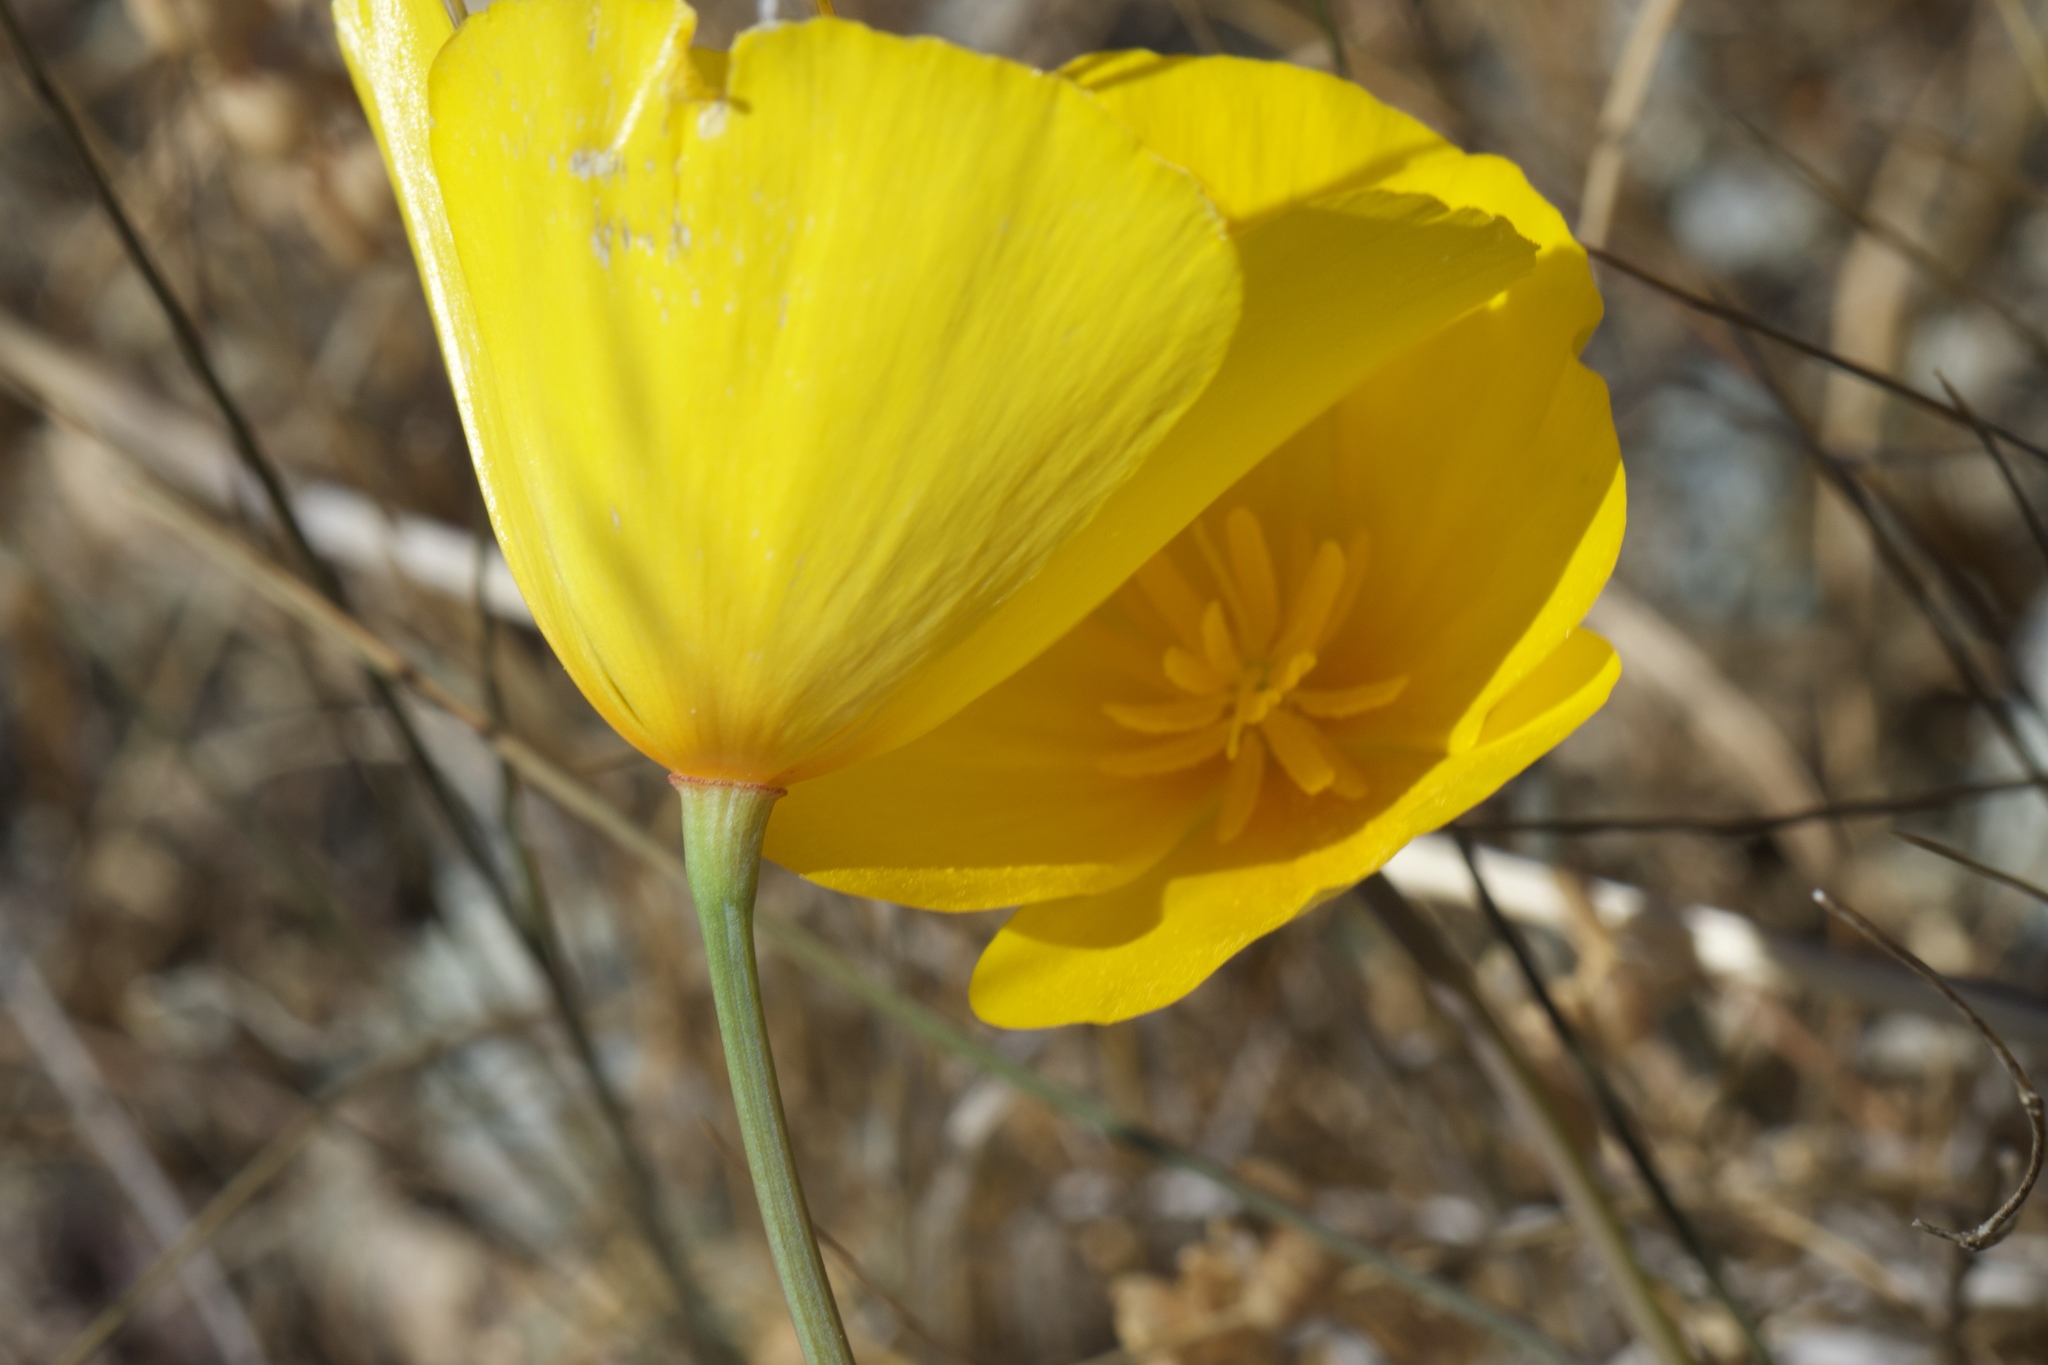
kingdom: Plantae
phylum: Tracheophyta
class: Magnoliopsida
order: Ranunculales
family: Papaveraceae
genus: Eschscholzia
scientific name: Eschscholzia caespitosa
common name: Tufted california-poppy
